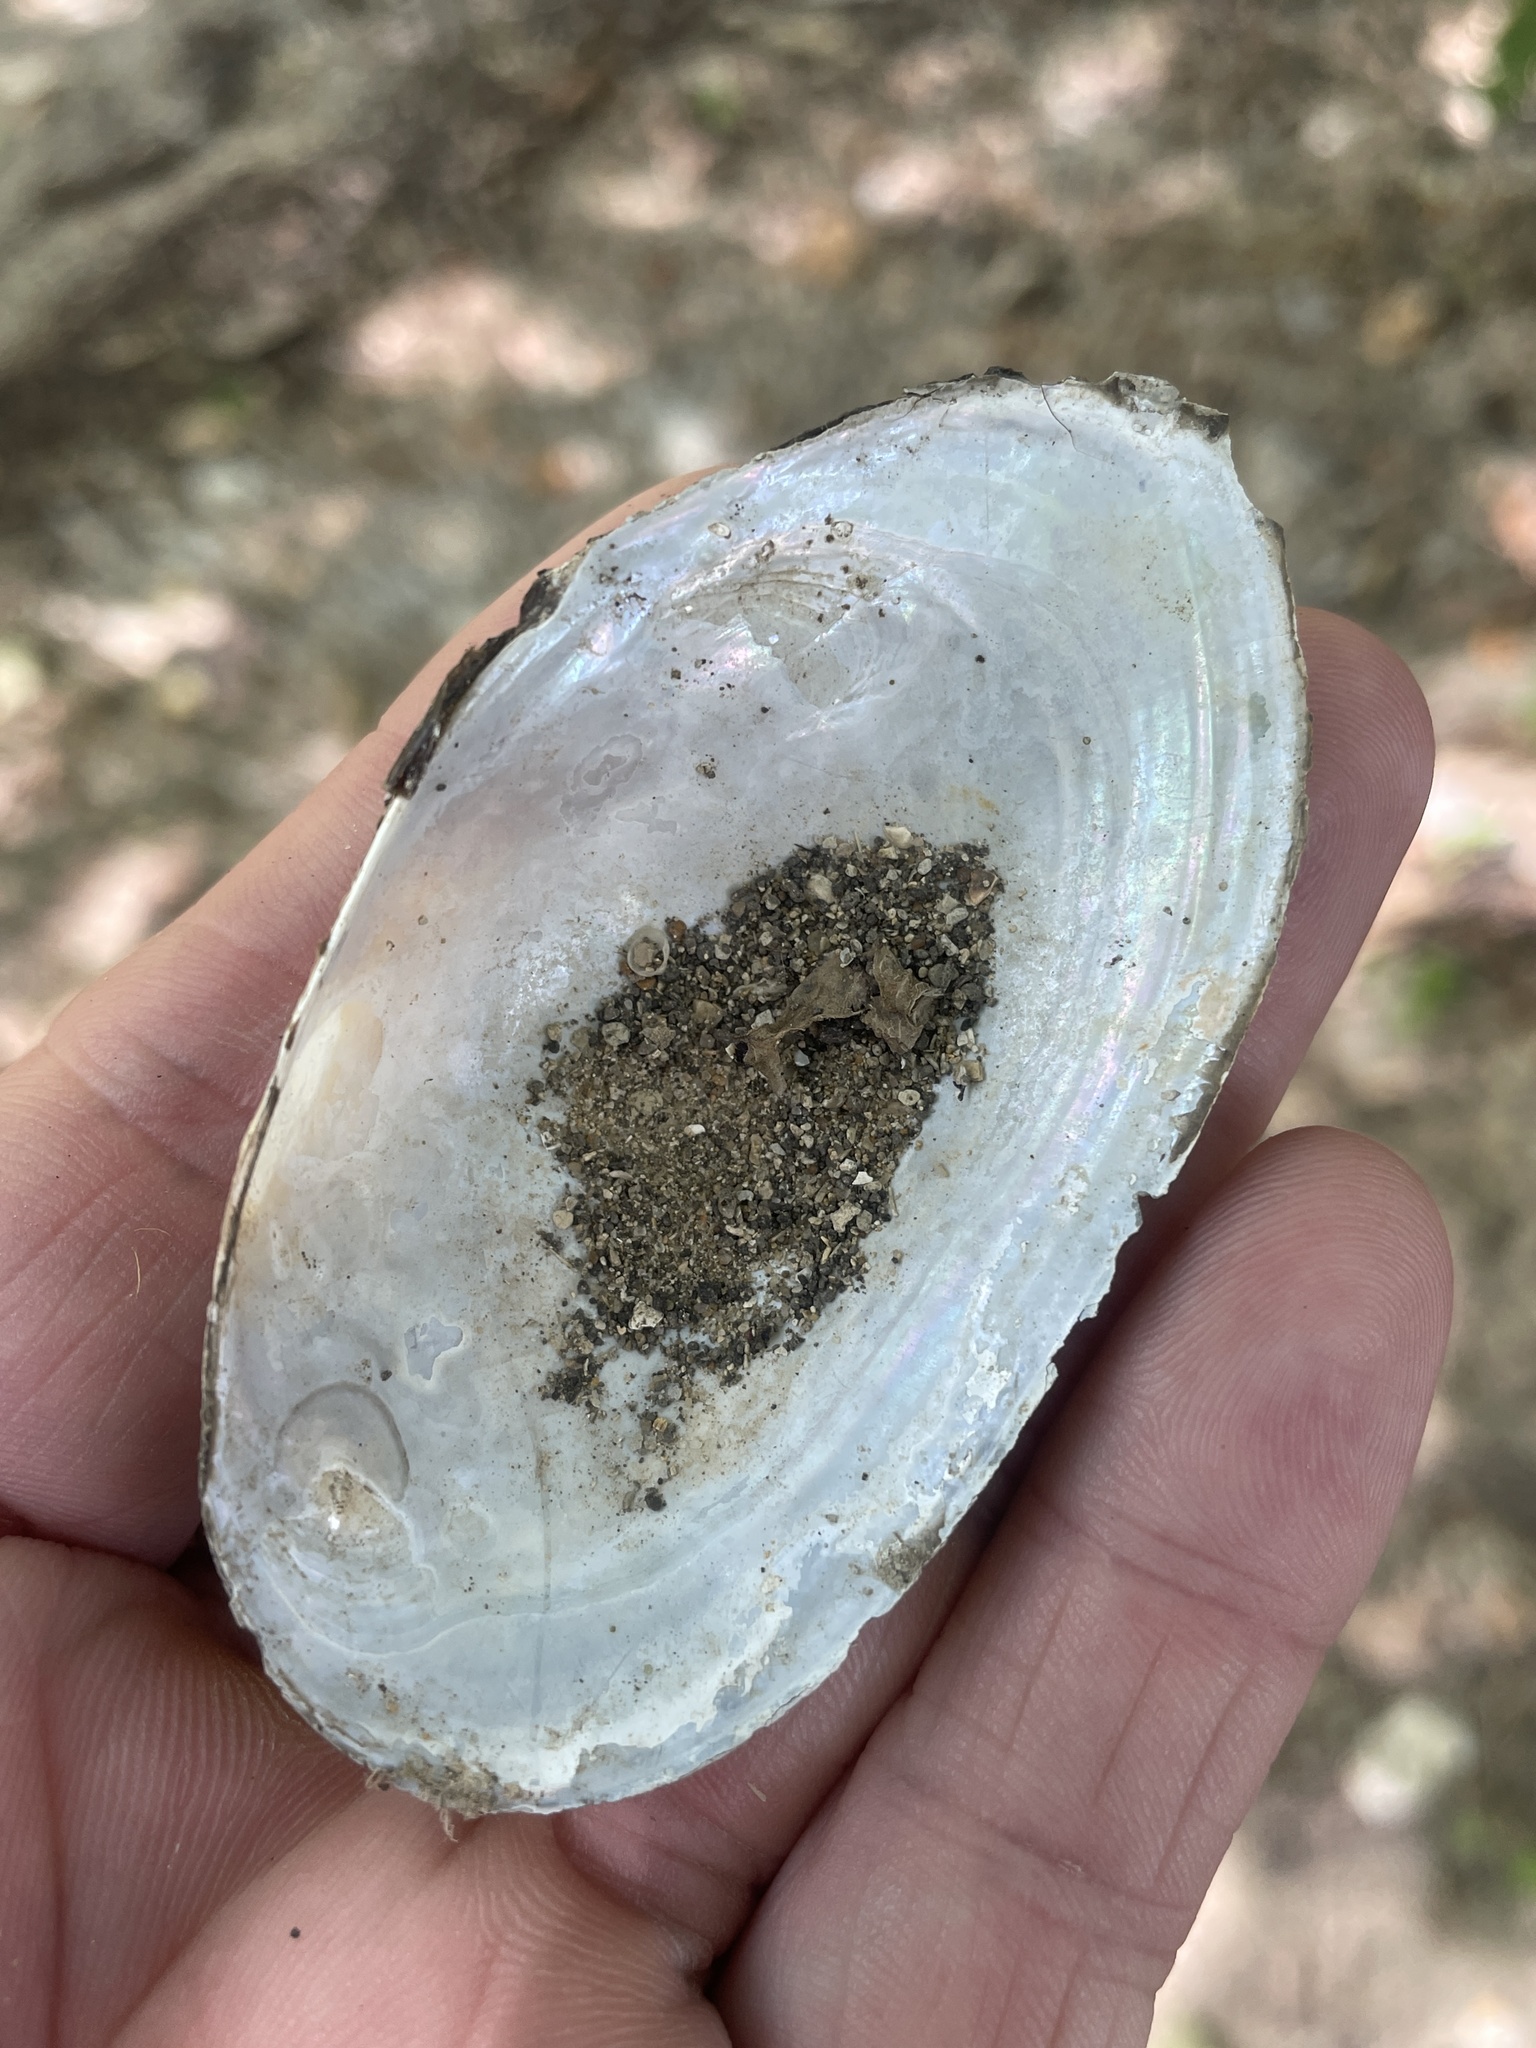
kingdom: Animalia
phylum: Mollusca
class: Bivalvia
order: Unionida
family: Unionidae
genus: Utterbackia
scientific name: Utterbackia imbecillis
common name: Paper pondshell
